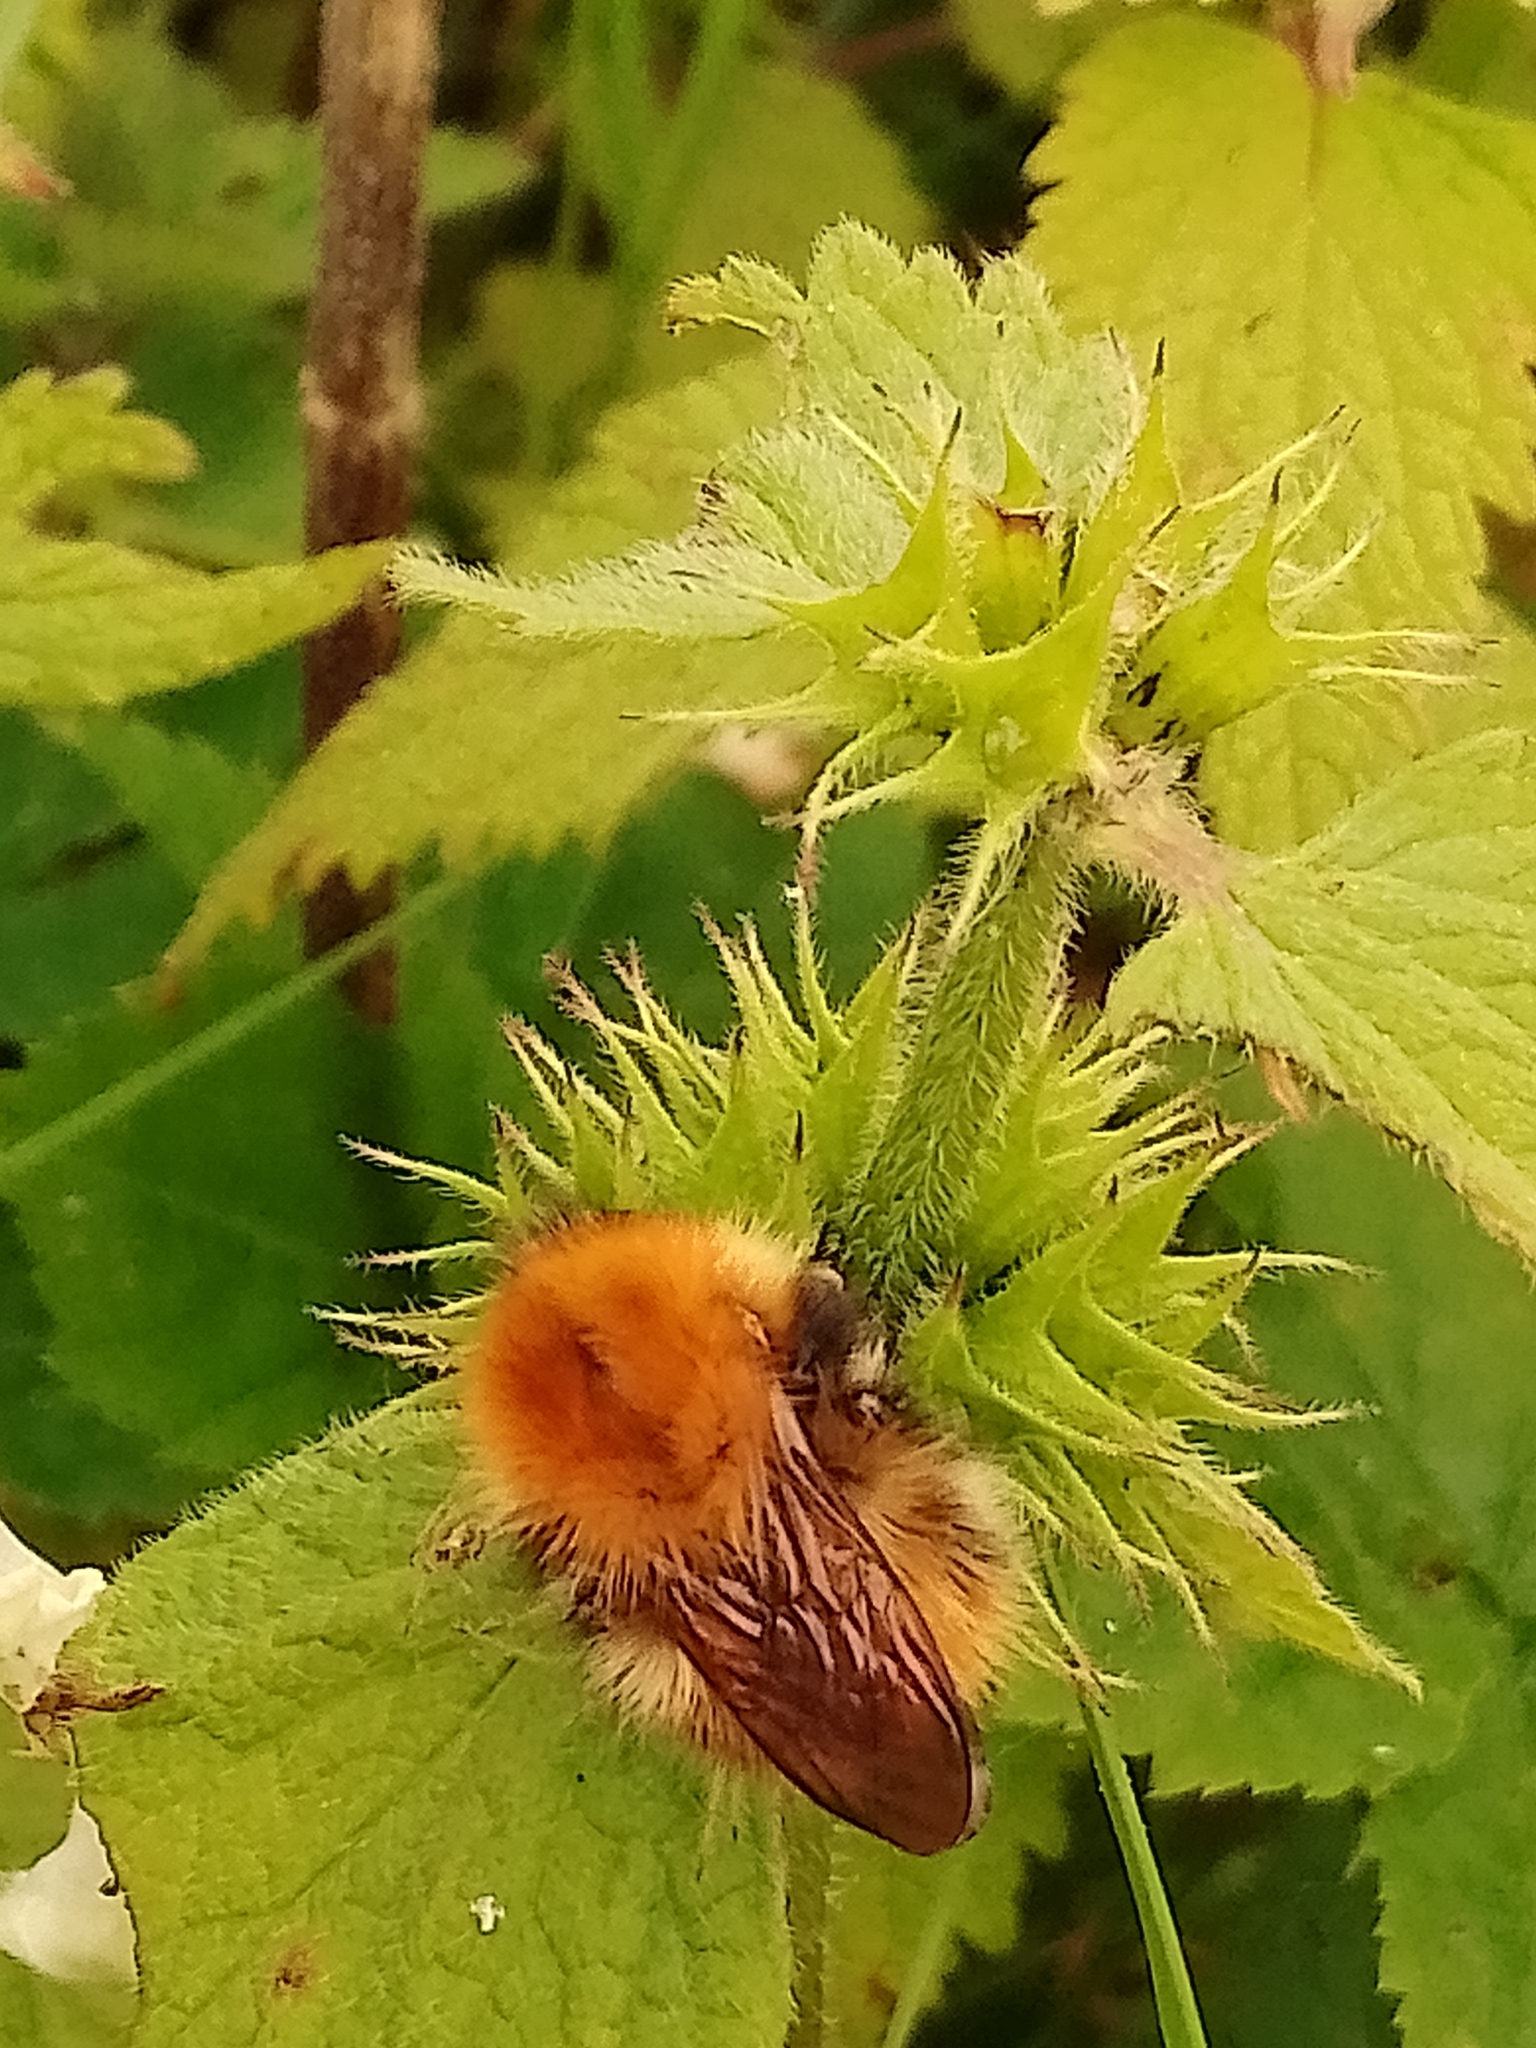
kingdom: Animalia
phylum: Arthropoda
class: Insecta
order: Hymenoptera
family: Apidae
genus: Bombus
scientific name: Bombus pascuorum
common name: Common carder bee
